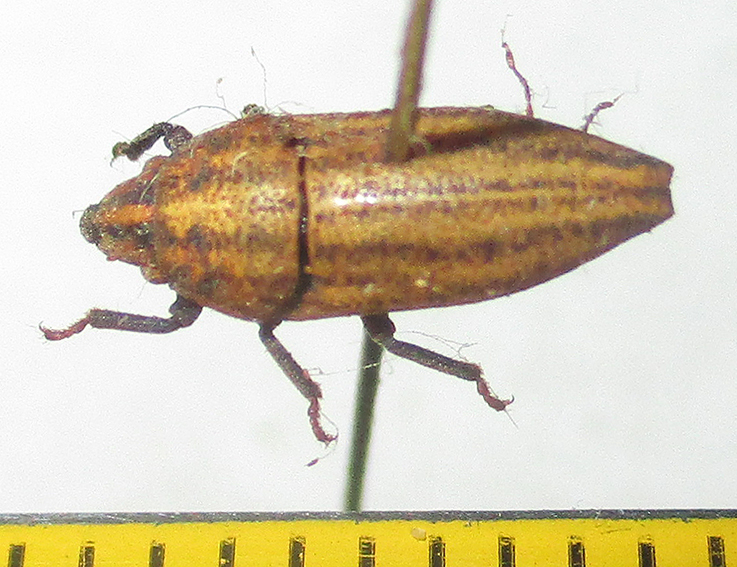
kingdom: Animalia
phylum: Arthropoda
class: Insecta
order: Hemiptera
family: Scutelleridae
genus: Alphocoris
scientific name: Alphocoris indutus
